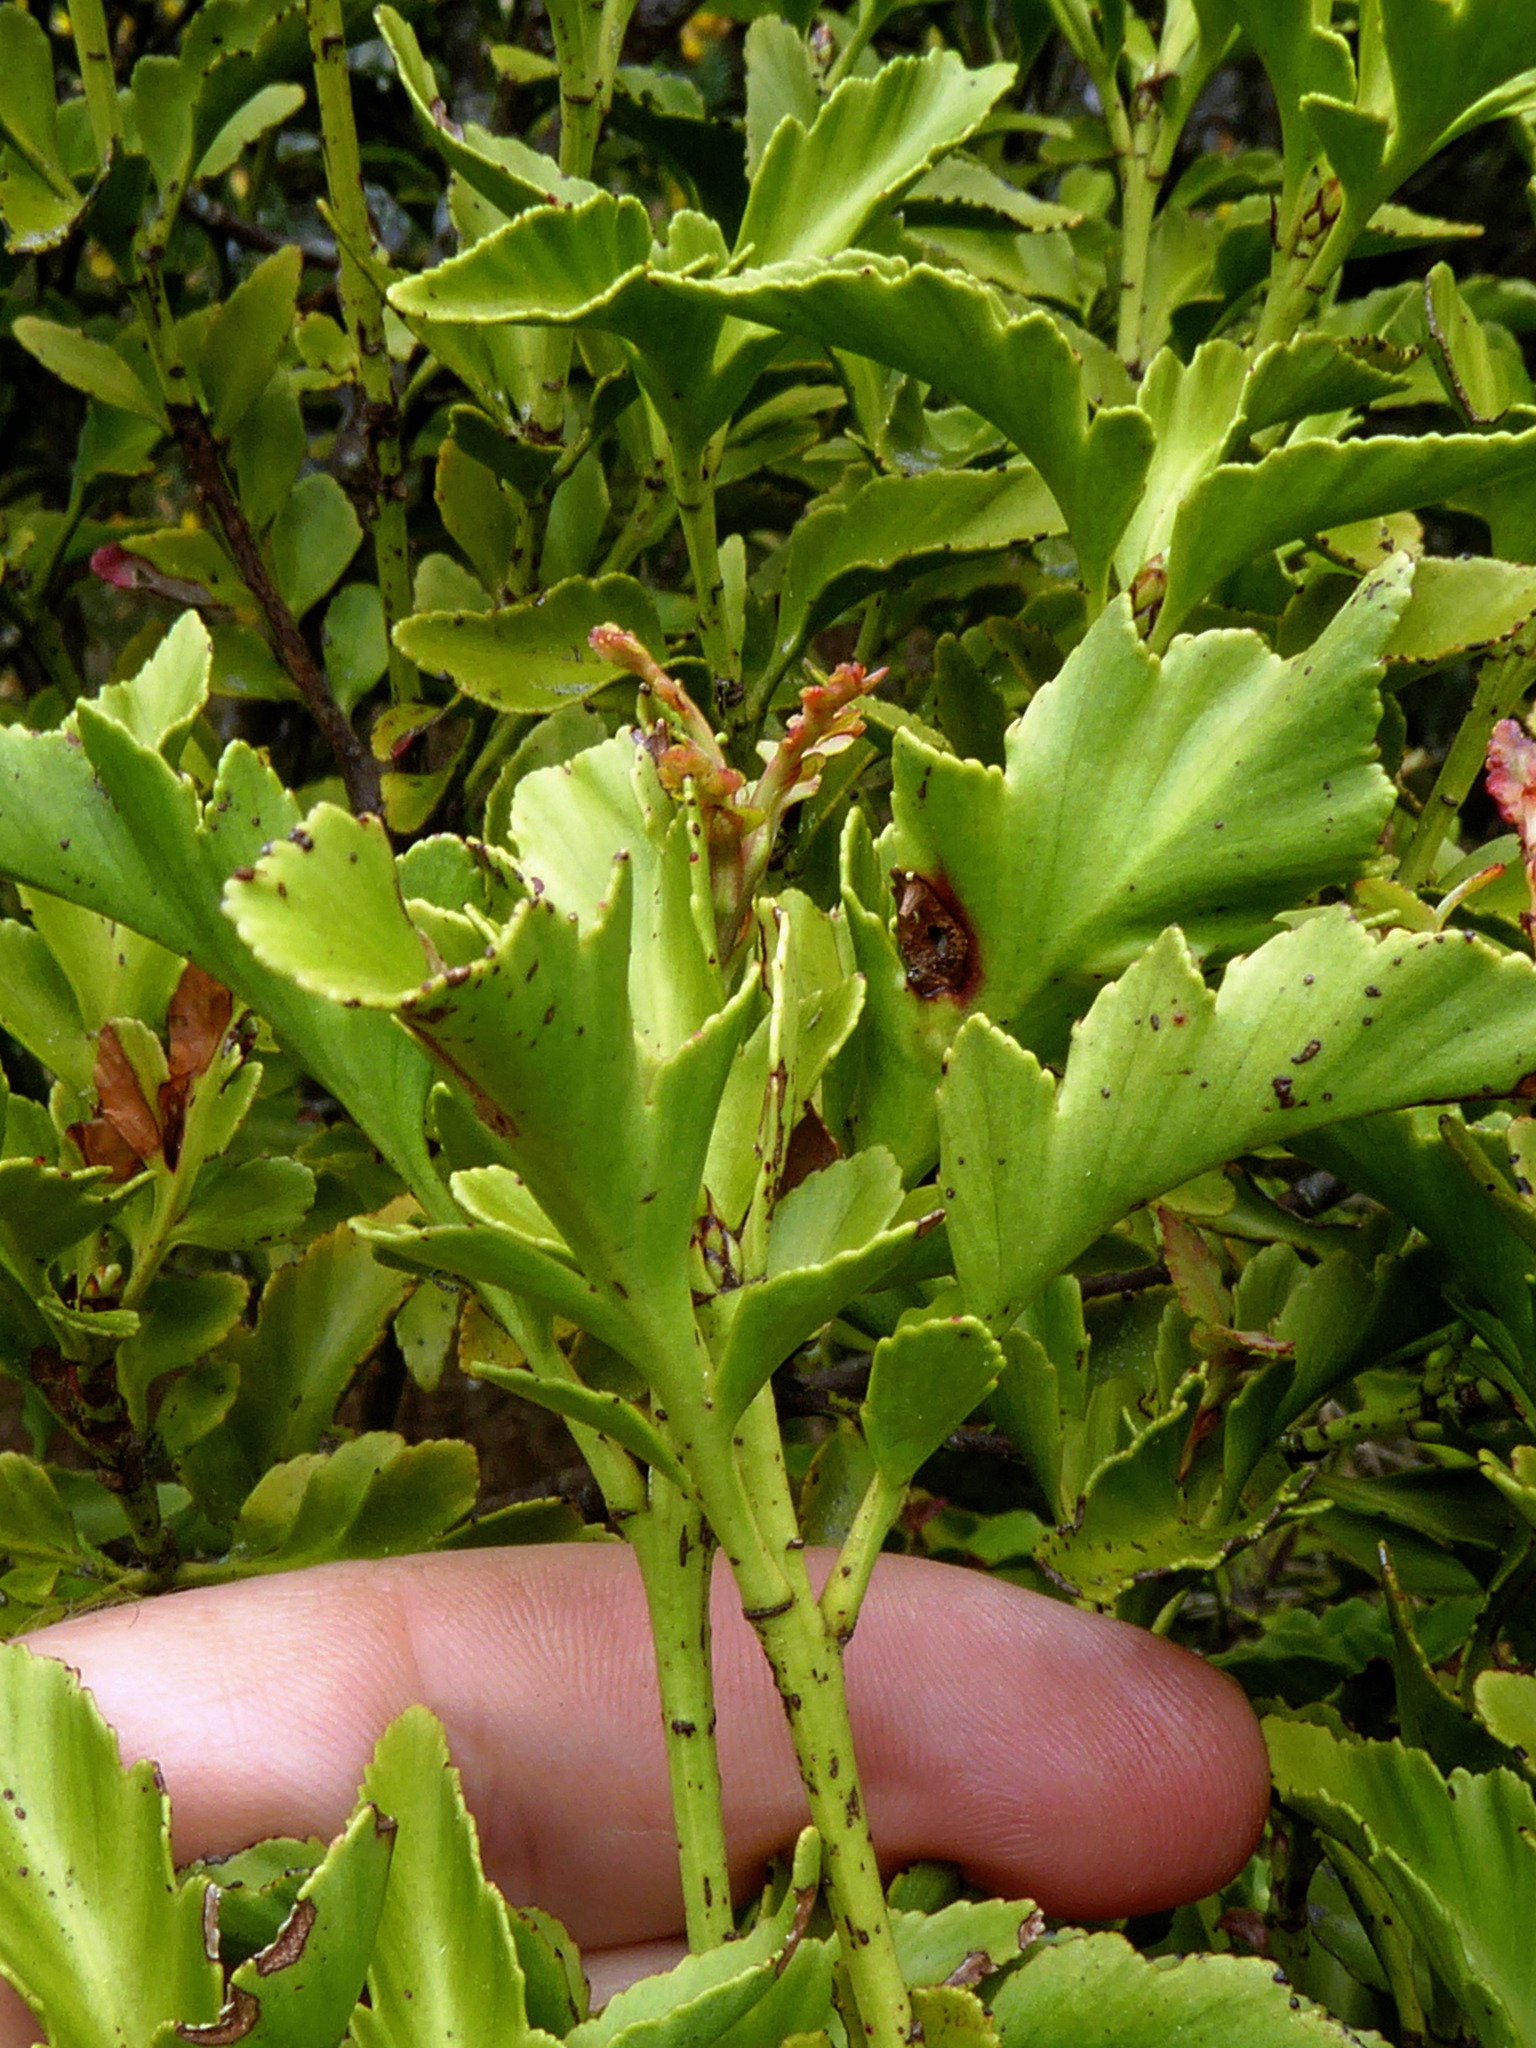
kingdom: Plantae
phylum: Tracheophyta
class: Pinopsida
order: Pinales
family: Phyllocladaceae
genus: Phyllocladus
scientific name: Phyllocladus trichomanoides
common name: Celery pine
